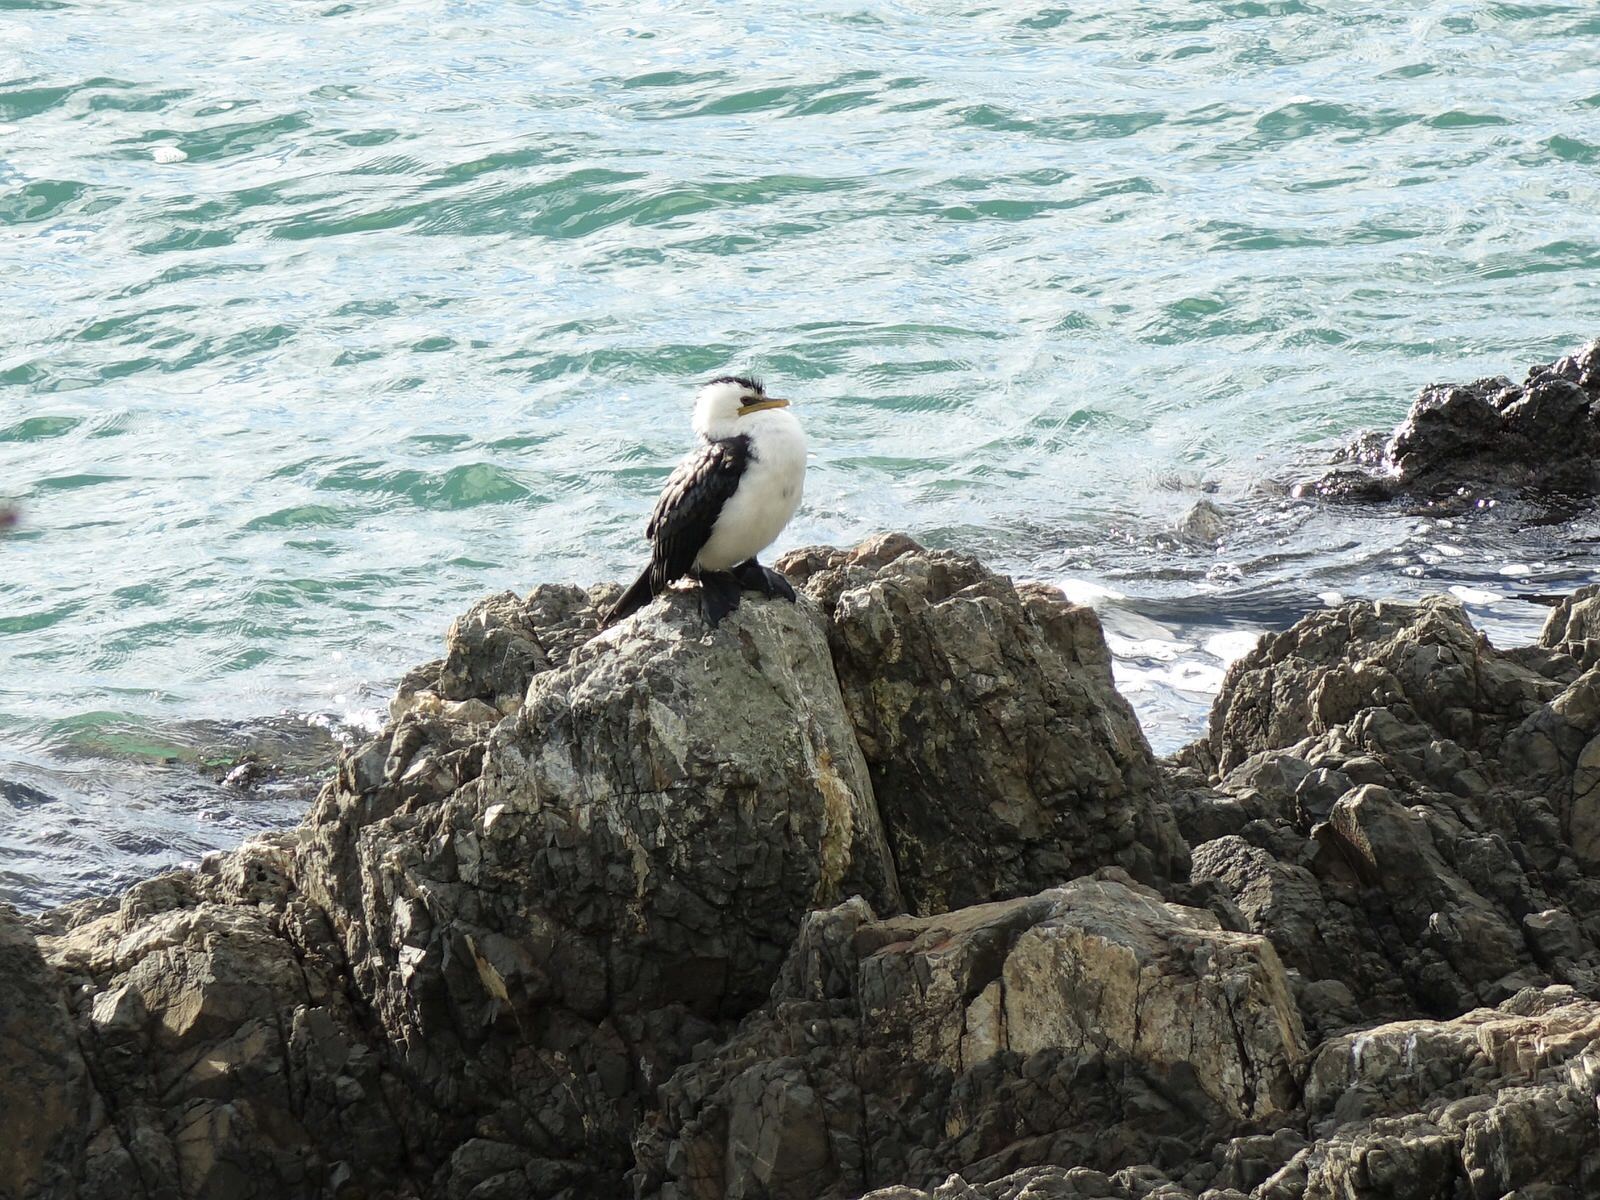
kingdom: Animalia
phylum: Chordata
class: Aves
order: Suliformes
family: Phalacrocoracidae
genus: Microcarbo
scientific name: Microcarbo melanoleucos
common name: Little pied cormorant
